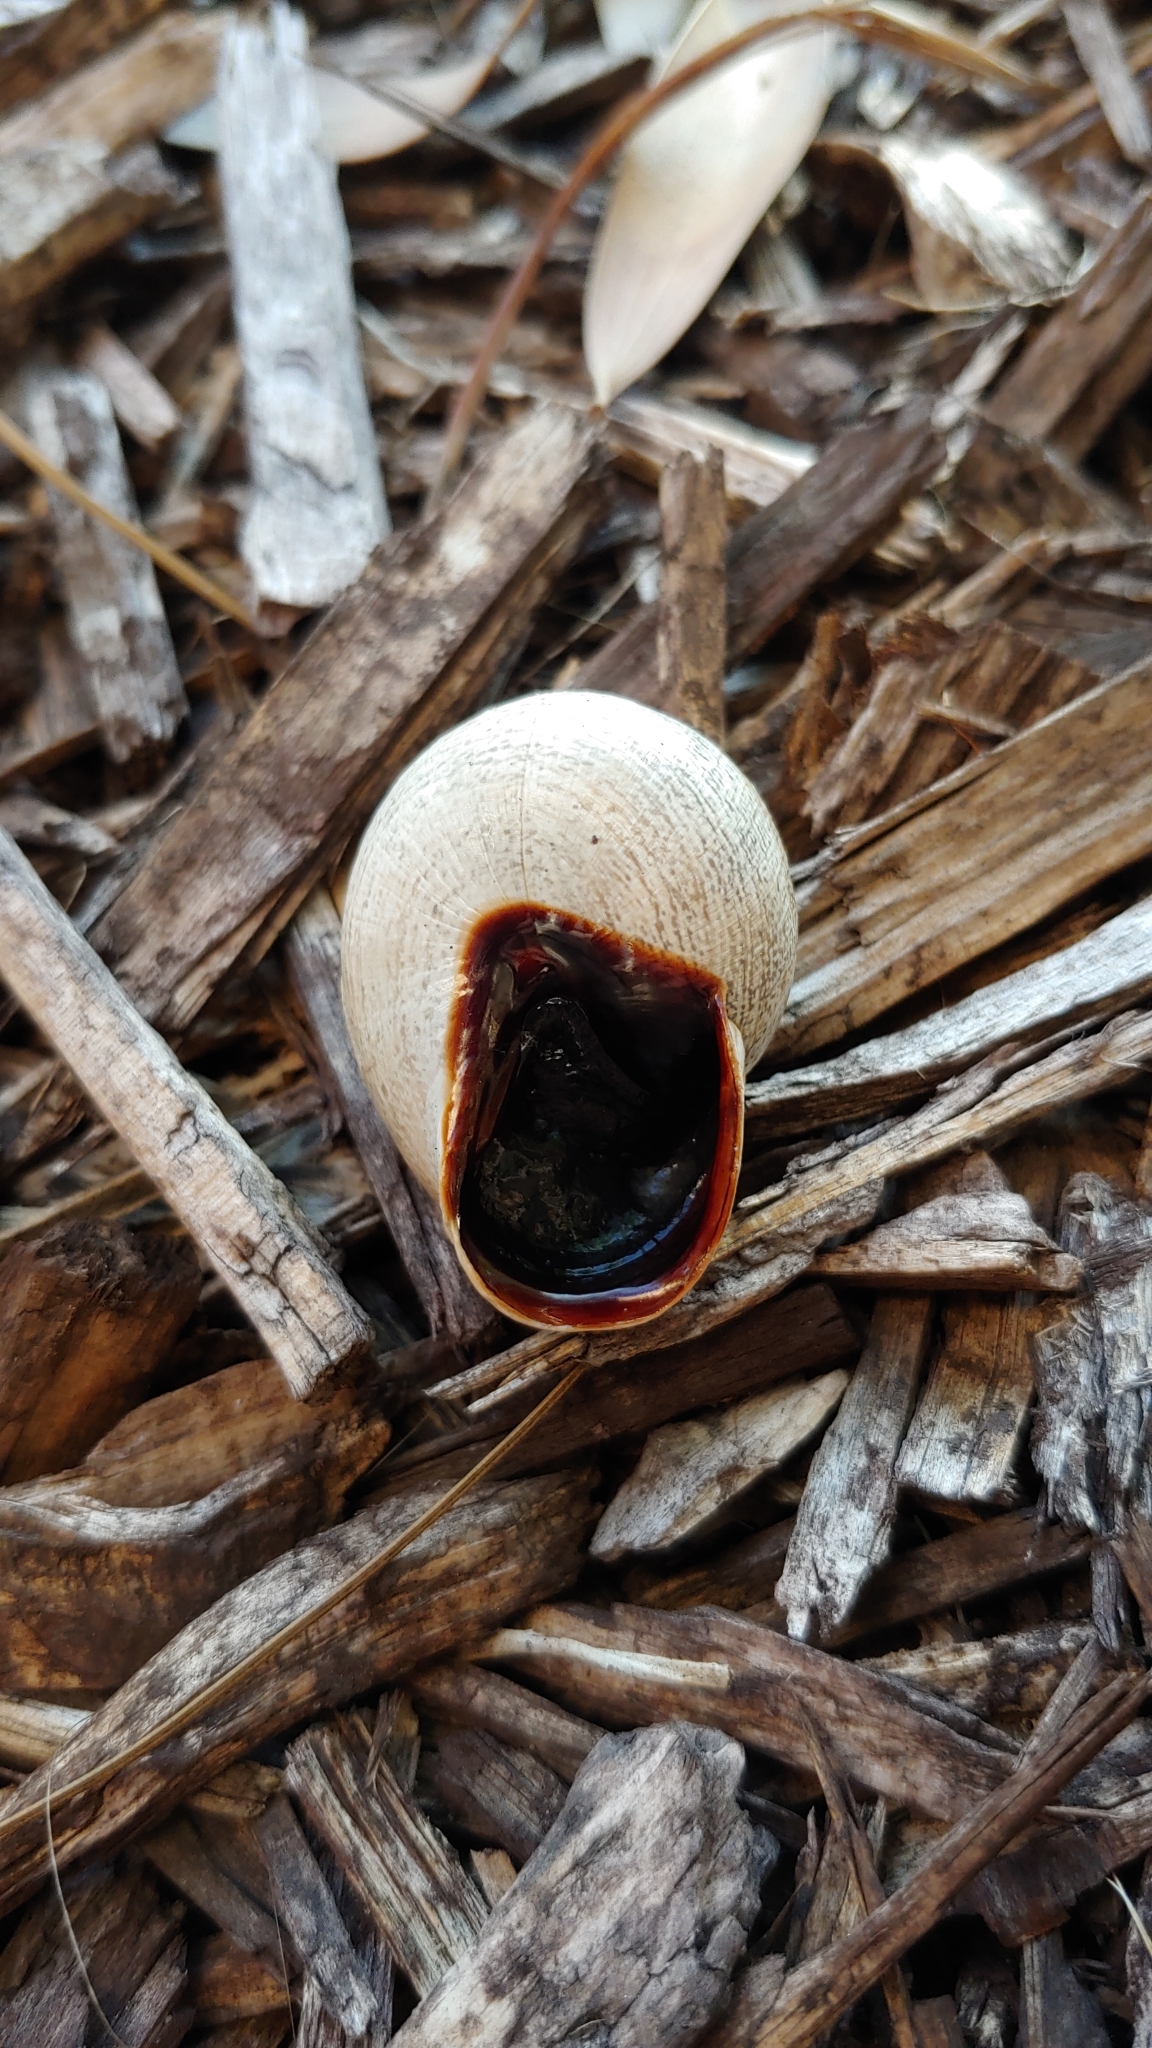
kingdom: Animalia
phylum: Mollusca
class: Gastropoda
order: Stylommatophora
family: Helicidae
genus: Otala
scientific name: Otala lactea
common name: Milk snail
